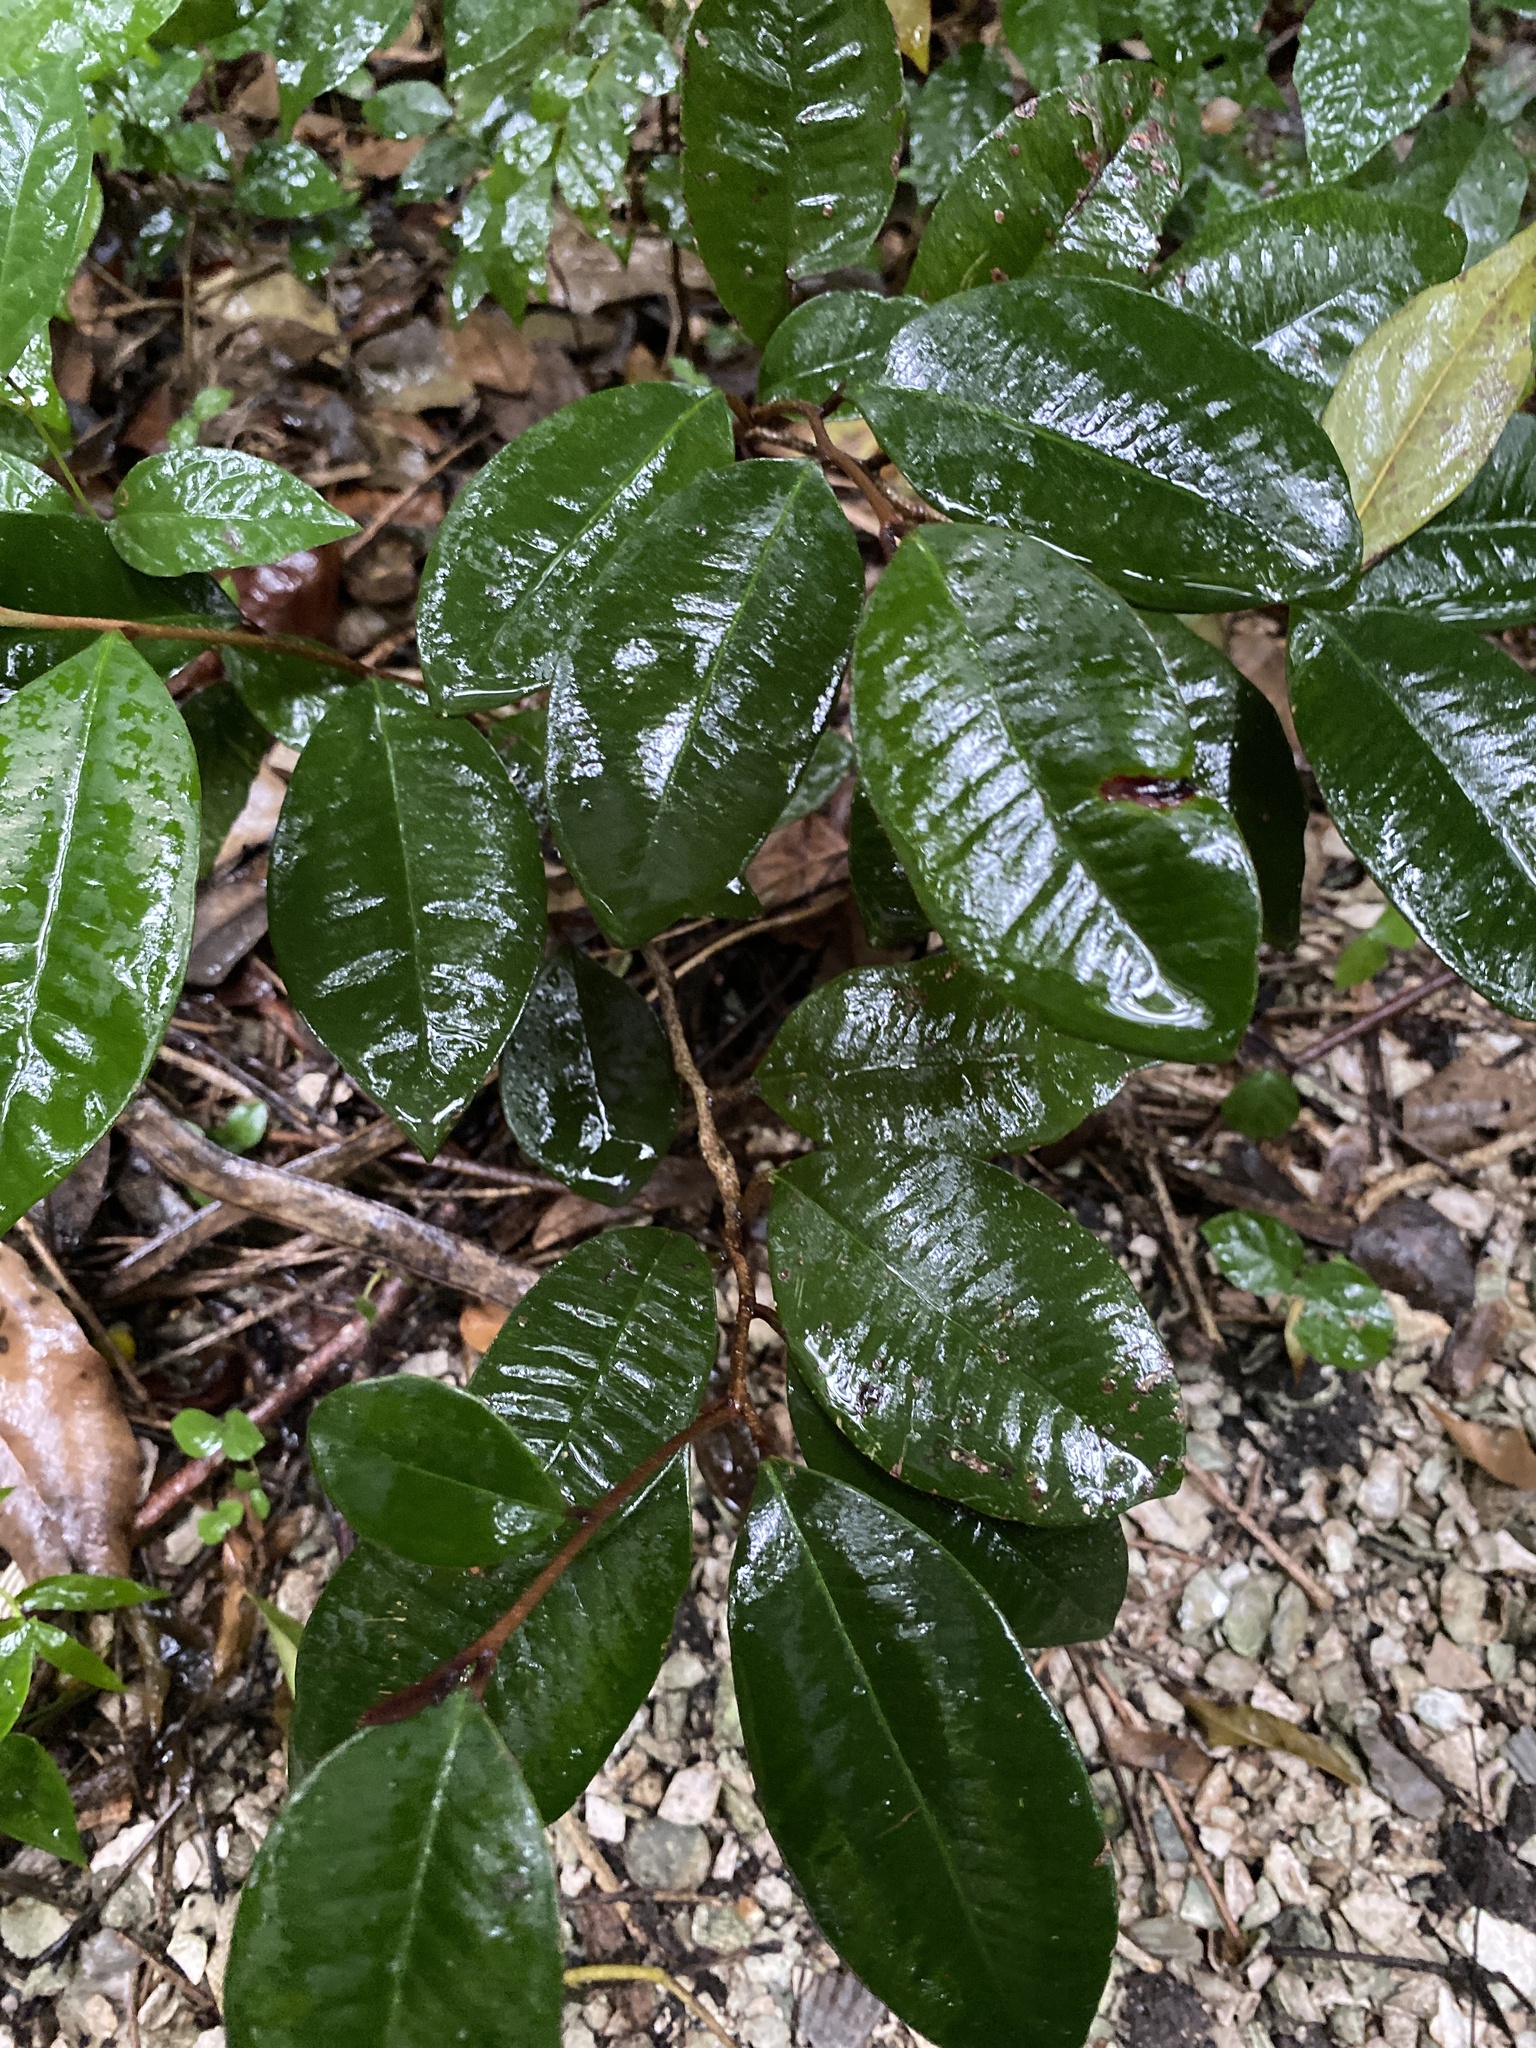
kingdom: Plantae
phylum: Tracheophyta
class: Magnoliopsida
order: Ericales
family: Sapotaceae
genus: Chrysophyllum
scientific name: Chrysophyllum oliviforme
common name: Satinleaf
